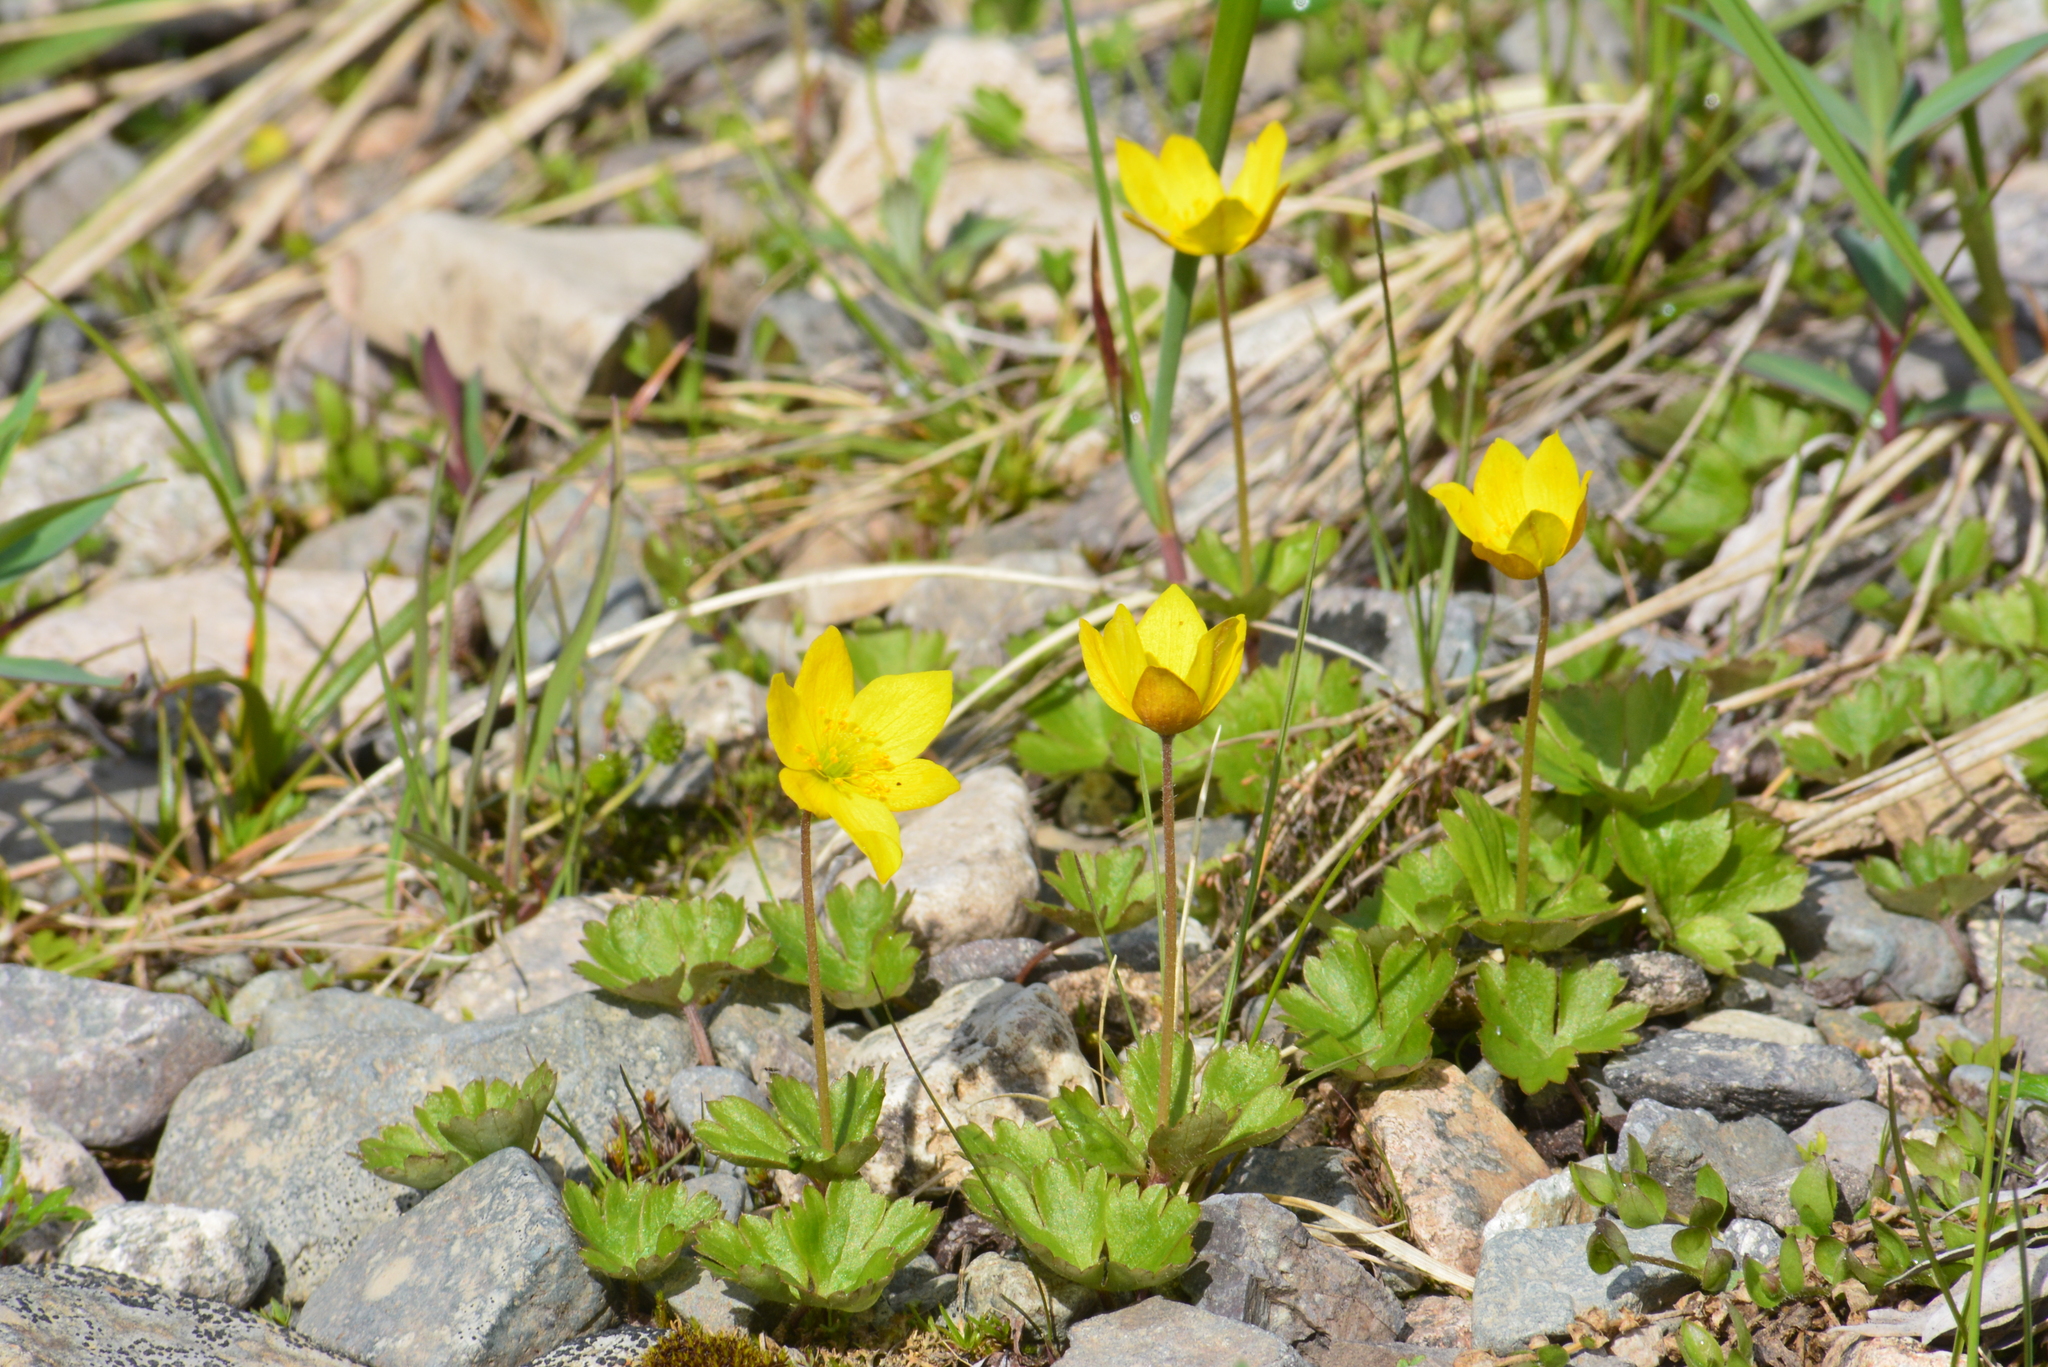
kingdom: Plantae
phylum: Tracheophyta
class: Magnoliopsida
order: Ranunculales
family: Ranunculaceae
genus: Anemonastrum
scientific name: Anemonastrum richardsonii
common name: Richardson's anemone
